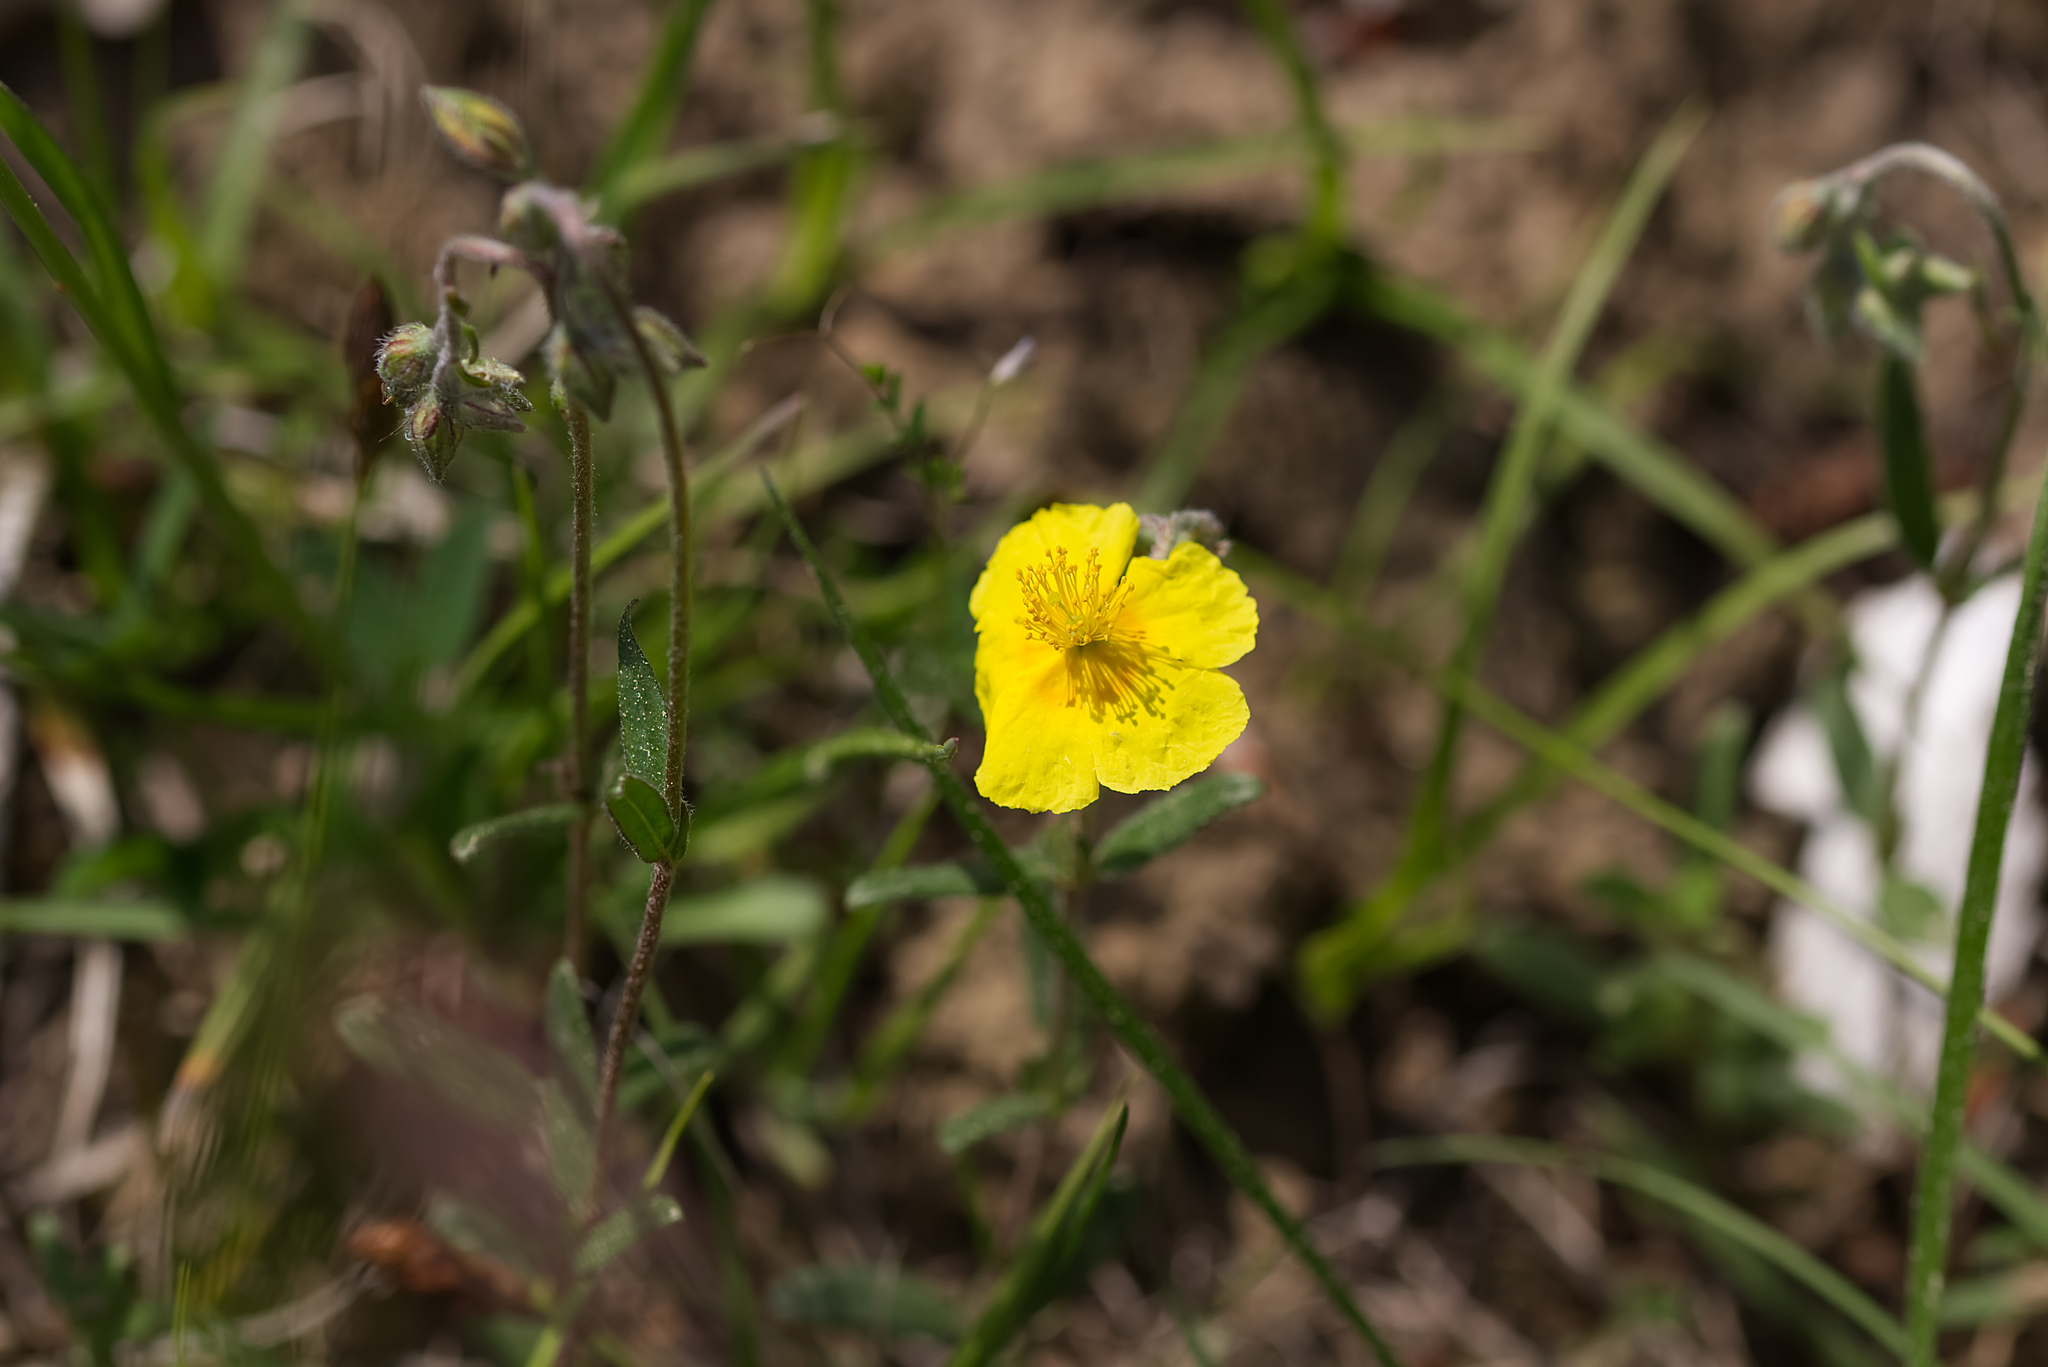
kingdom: Plantae
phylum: Tracheophyta
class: Magnoliopsida
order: Malvales
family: Cistaceae
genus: Helianthemum
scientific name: Helianthemum nummularium
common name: Common rock-rose
